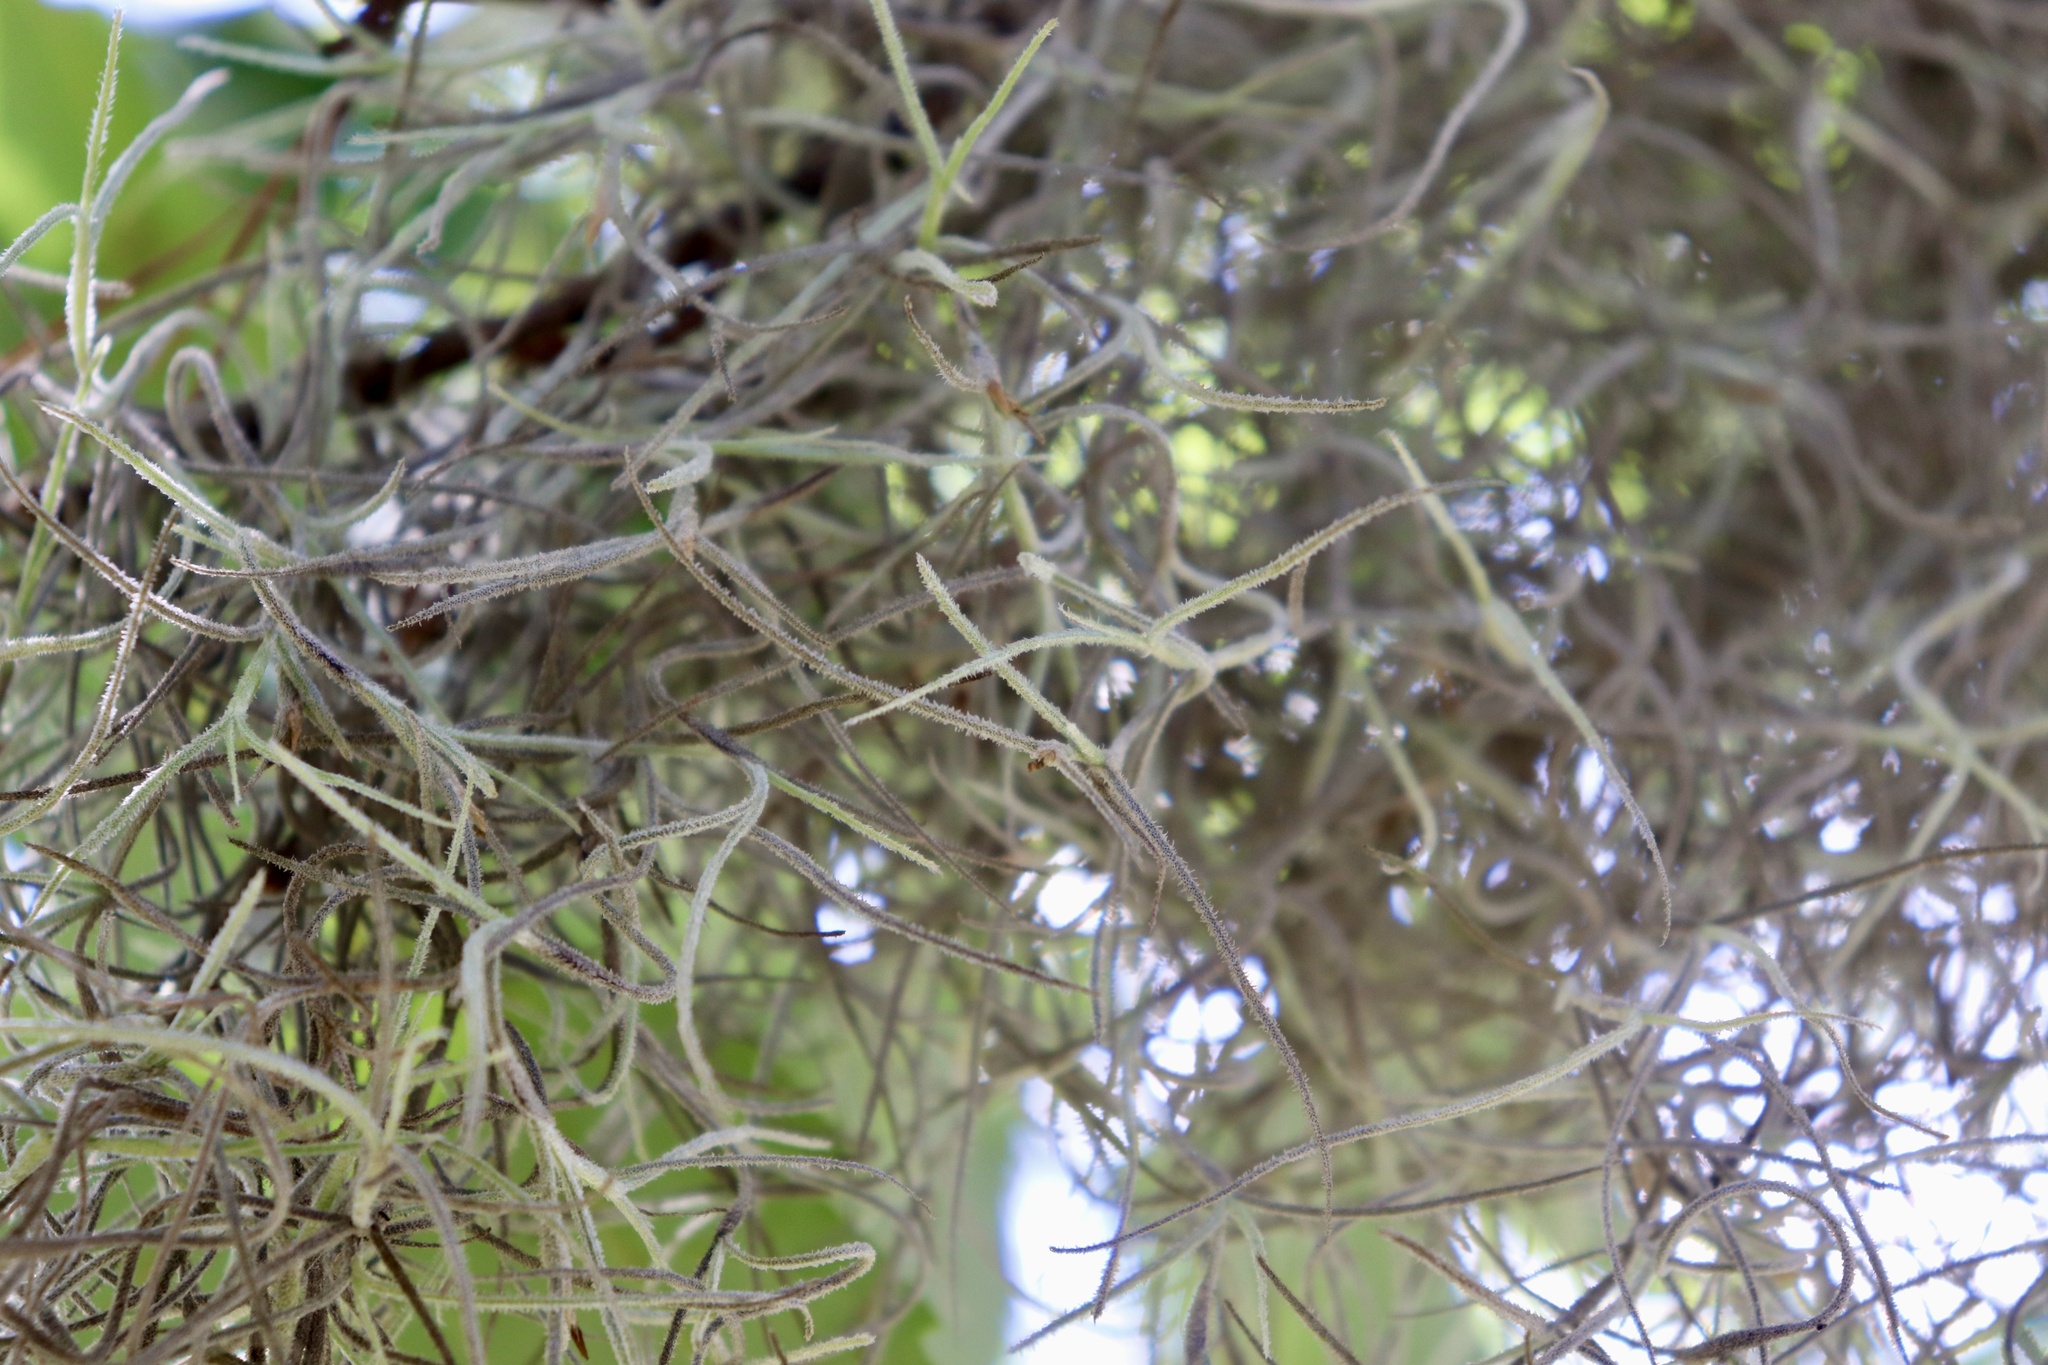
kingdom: Plantae
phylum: Tracheophyta
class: Liliopsida
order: Poales
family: Bromeliaceae
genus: Tillandsia
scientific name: Tillandsia usneoides
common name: Spanish moss
